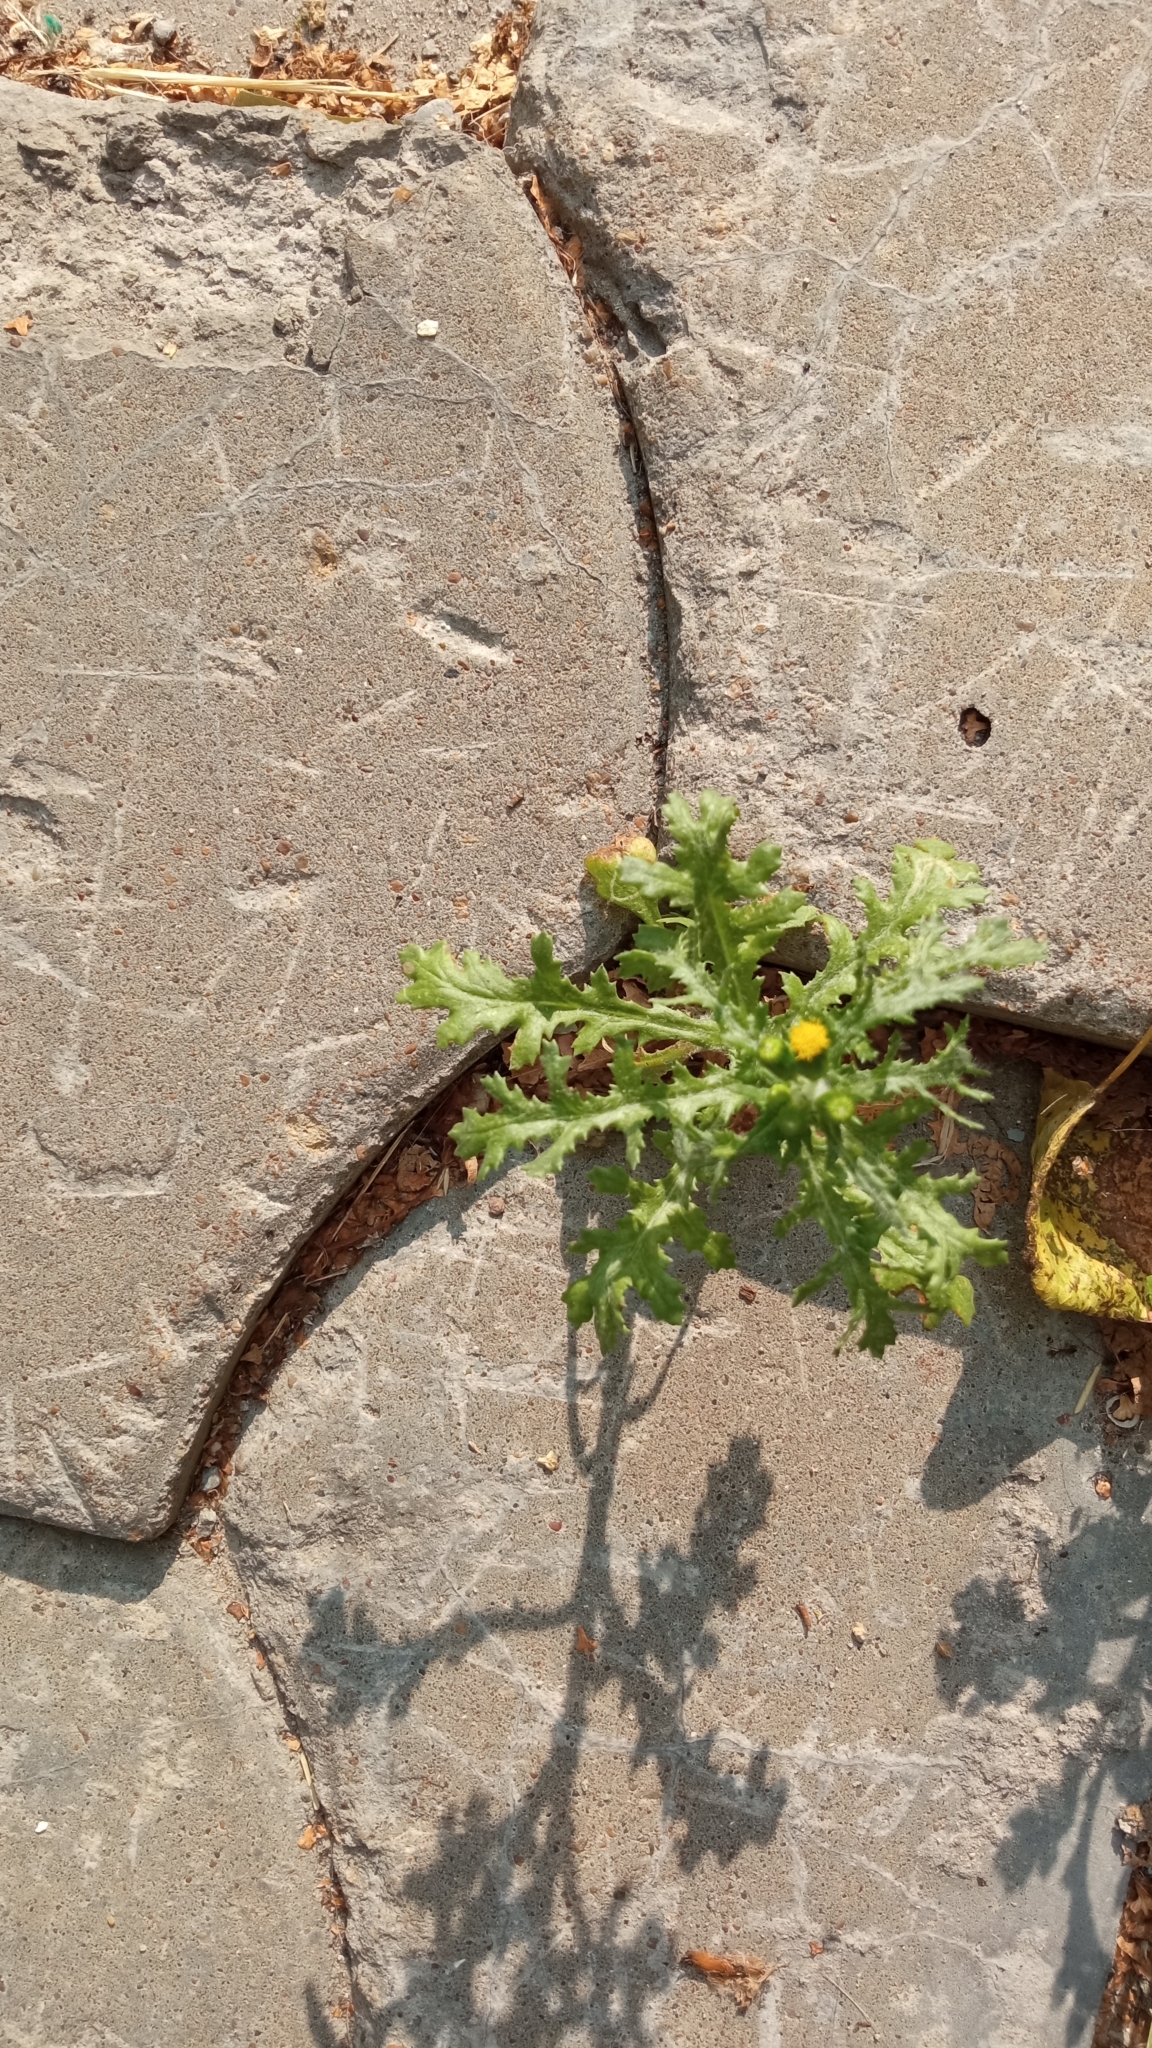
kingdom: Plantae
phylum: Tracheophyta
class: Magnoliopsida
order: Asterales
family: Asteraceae
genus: Senecio
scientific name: Senecio vulgaris
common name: Old-man-in-the-spring
